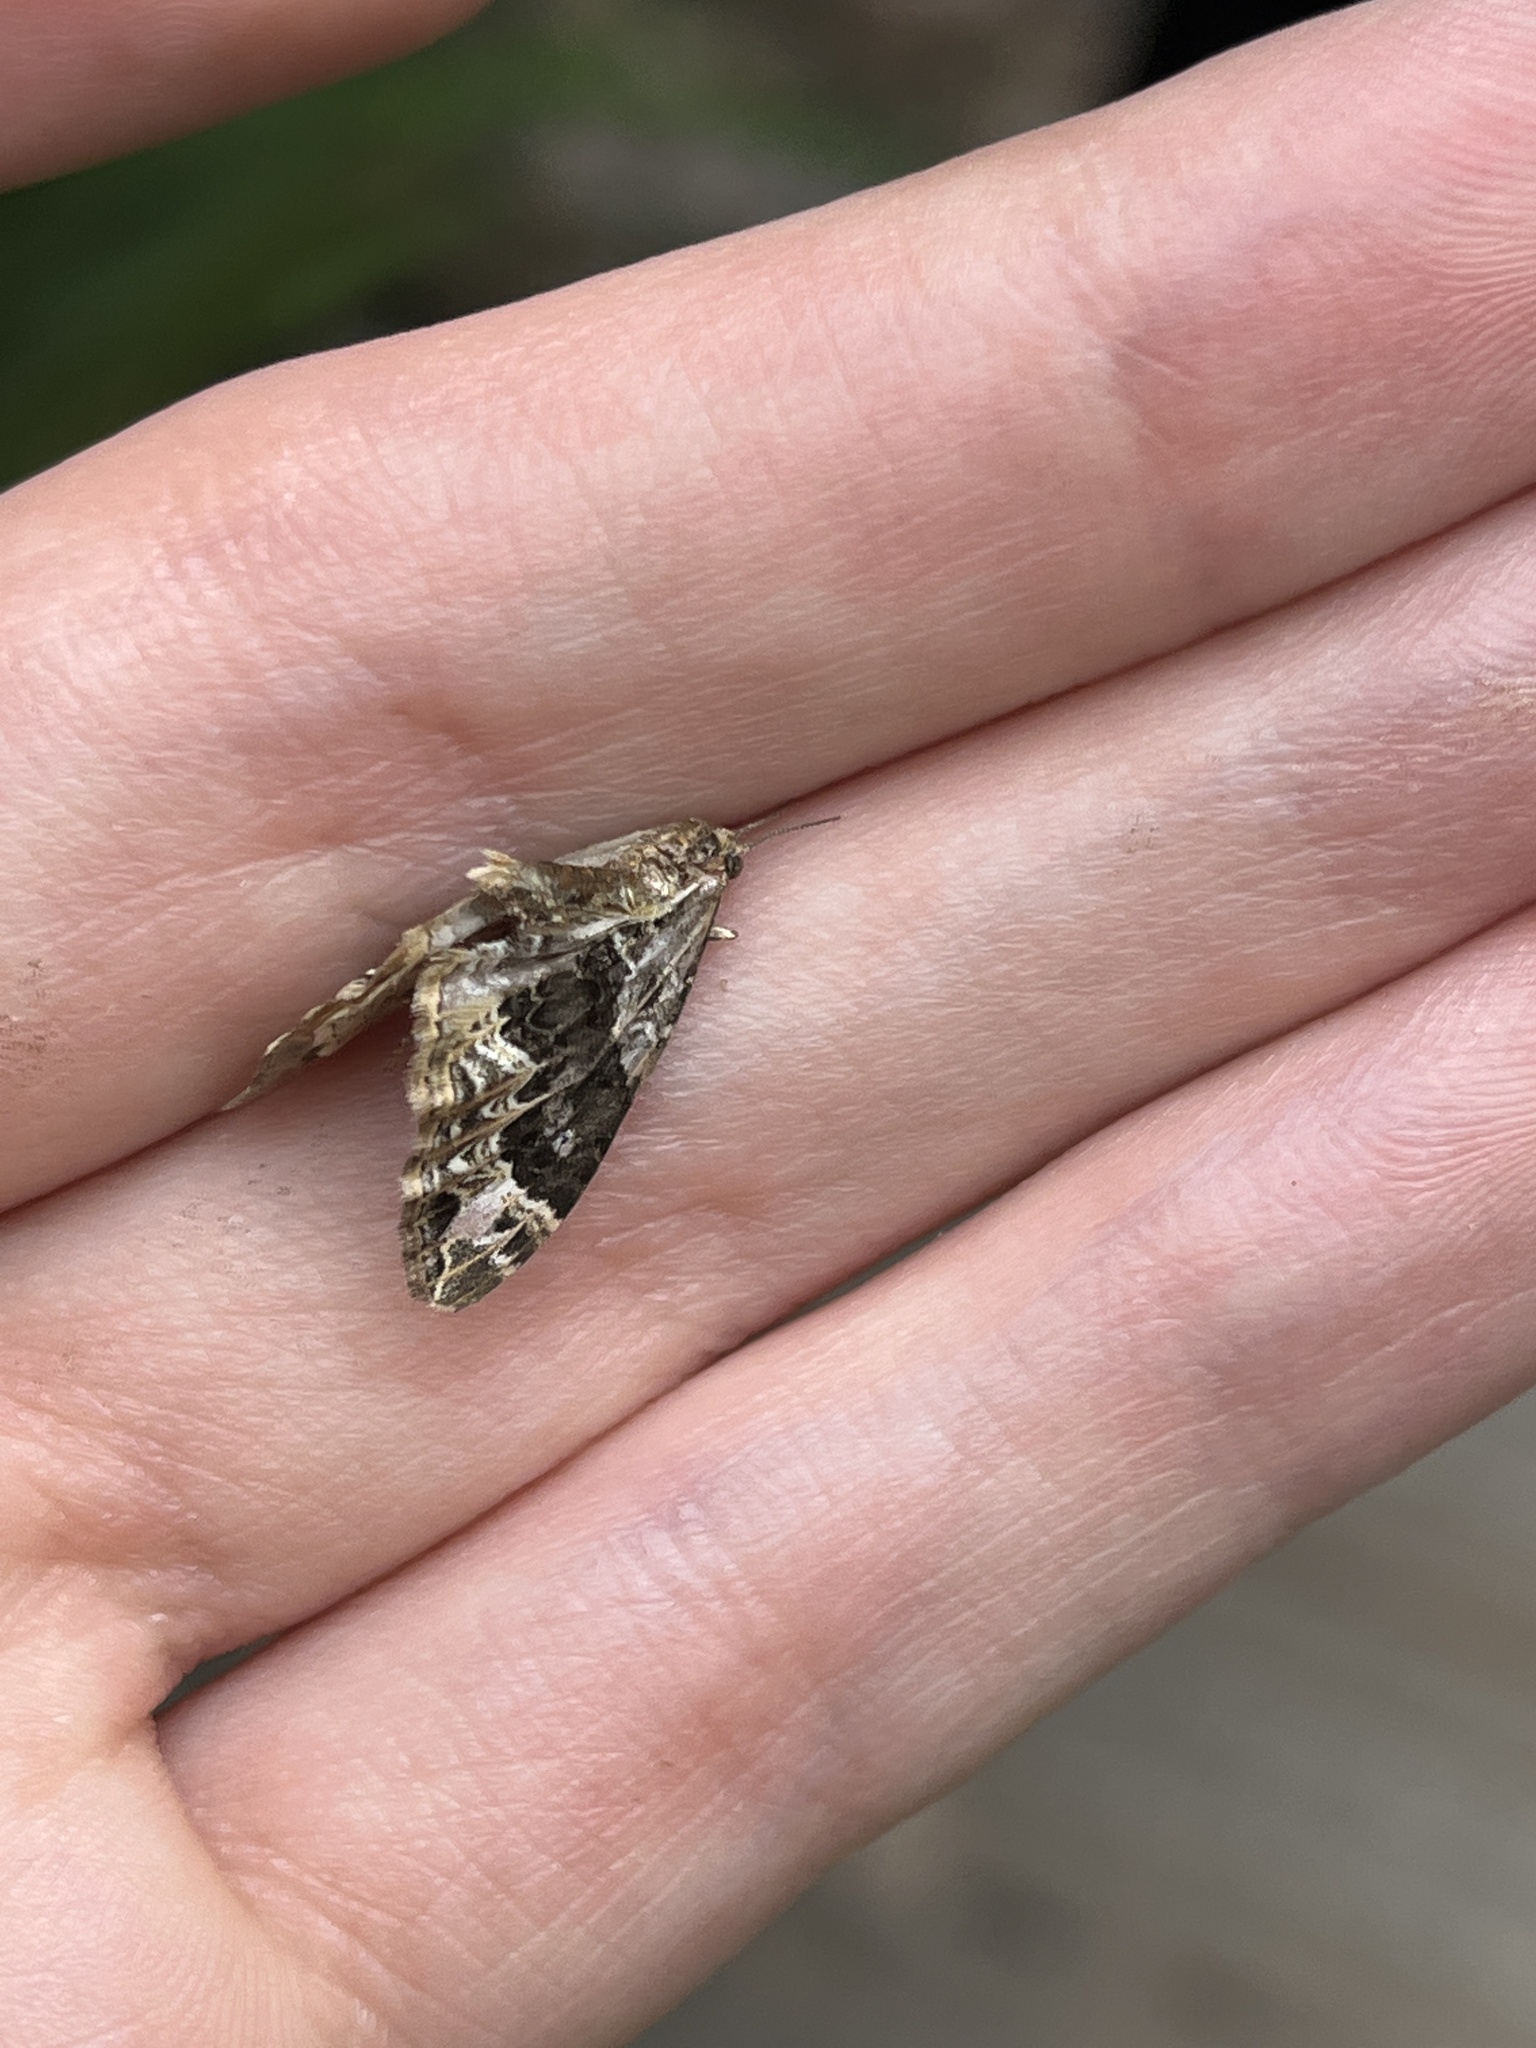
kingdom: Animalia
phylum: Arthropoda
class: Insecta
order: Lepidoptera
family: Geometridae
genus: Ecliptopera
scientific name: Ecliptopera silaceata
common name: Small phoenix
